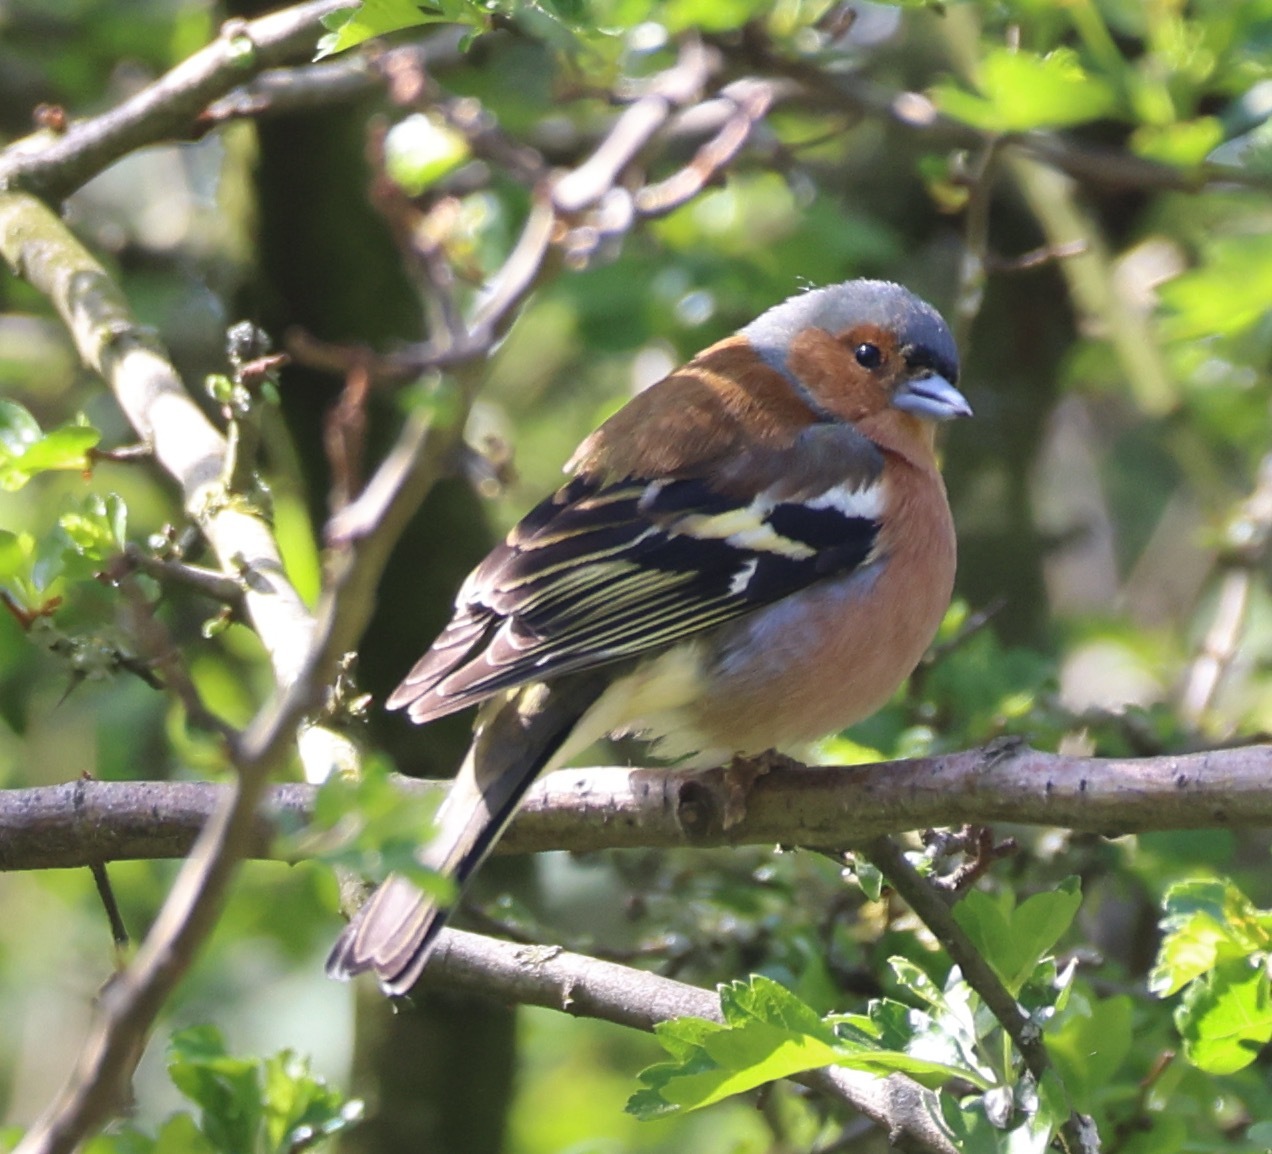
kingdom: Animalia
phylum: Chordata
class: Aves
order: Passeriformes
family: Fringillidae
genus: Fringilla
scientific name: Fringilla coelebs
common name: Common chaffinch
